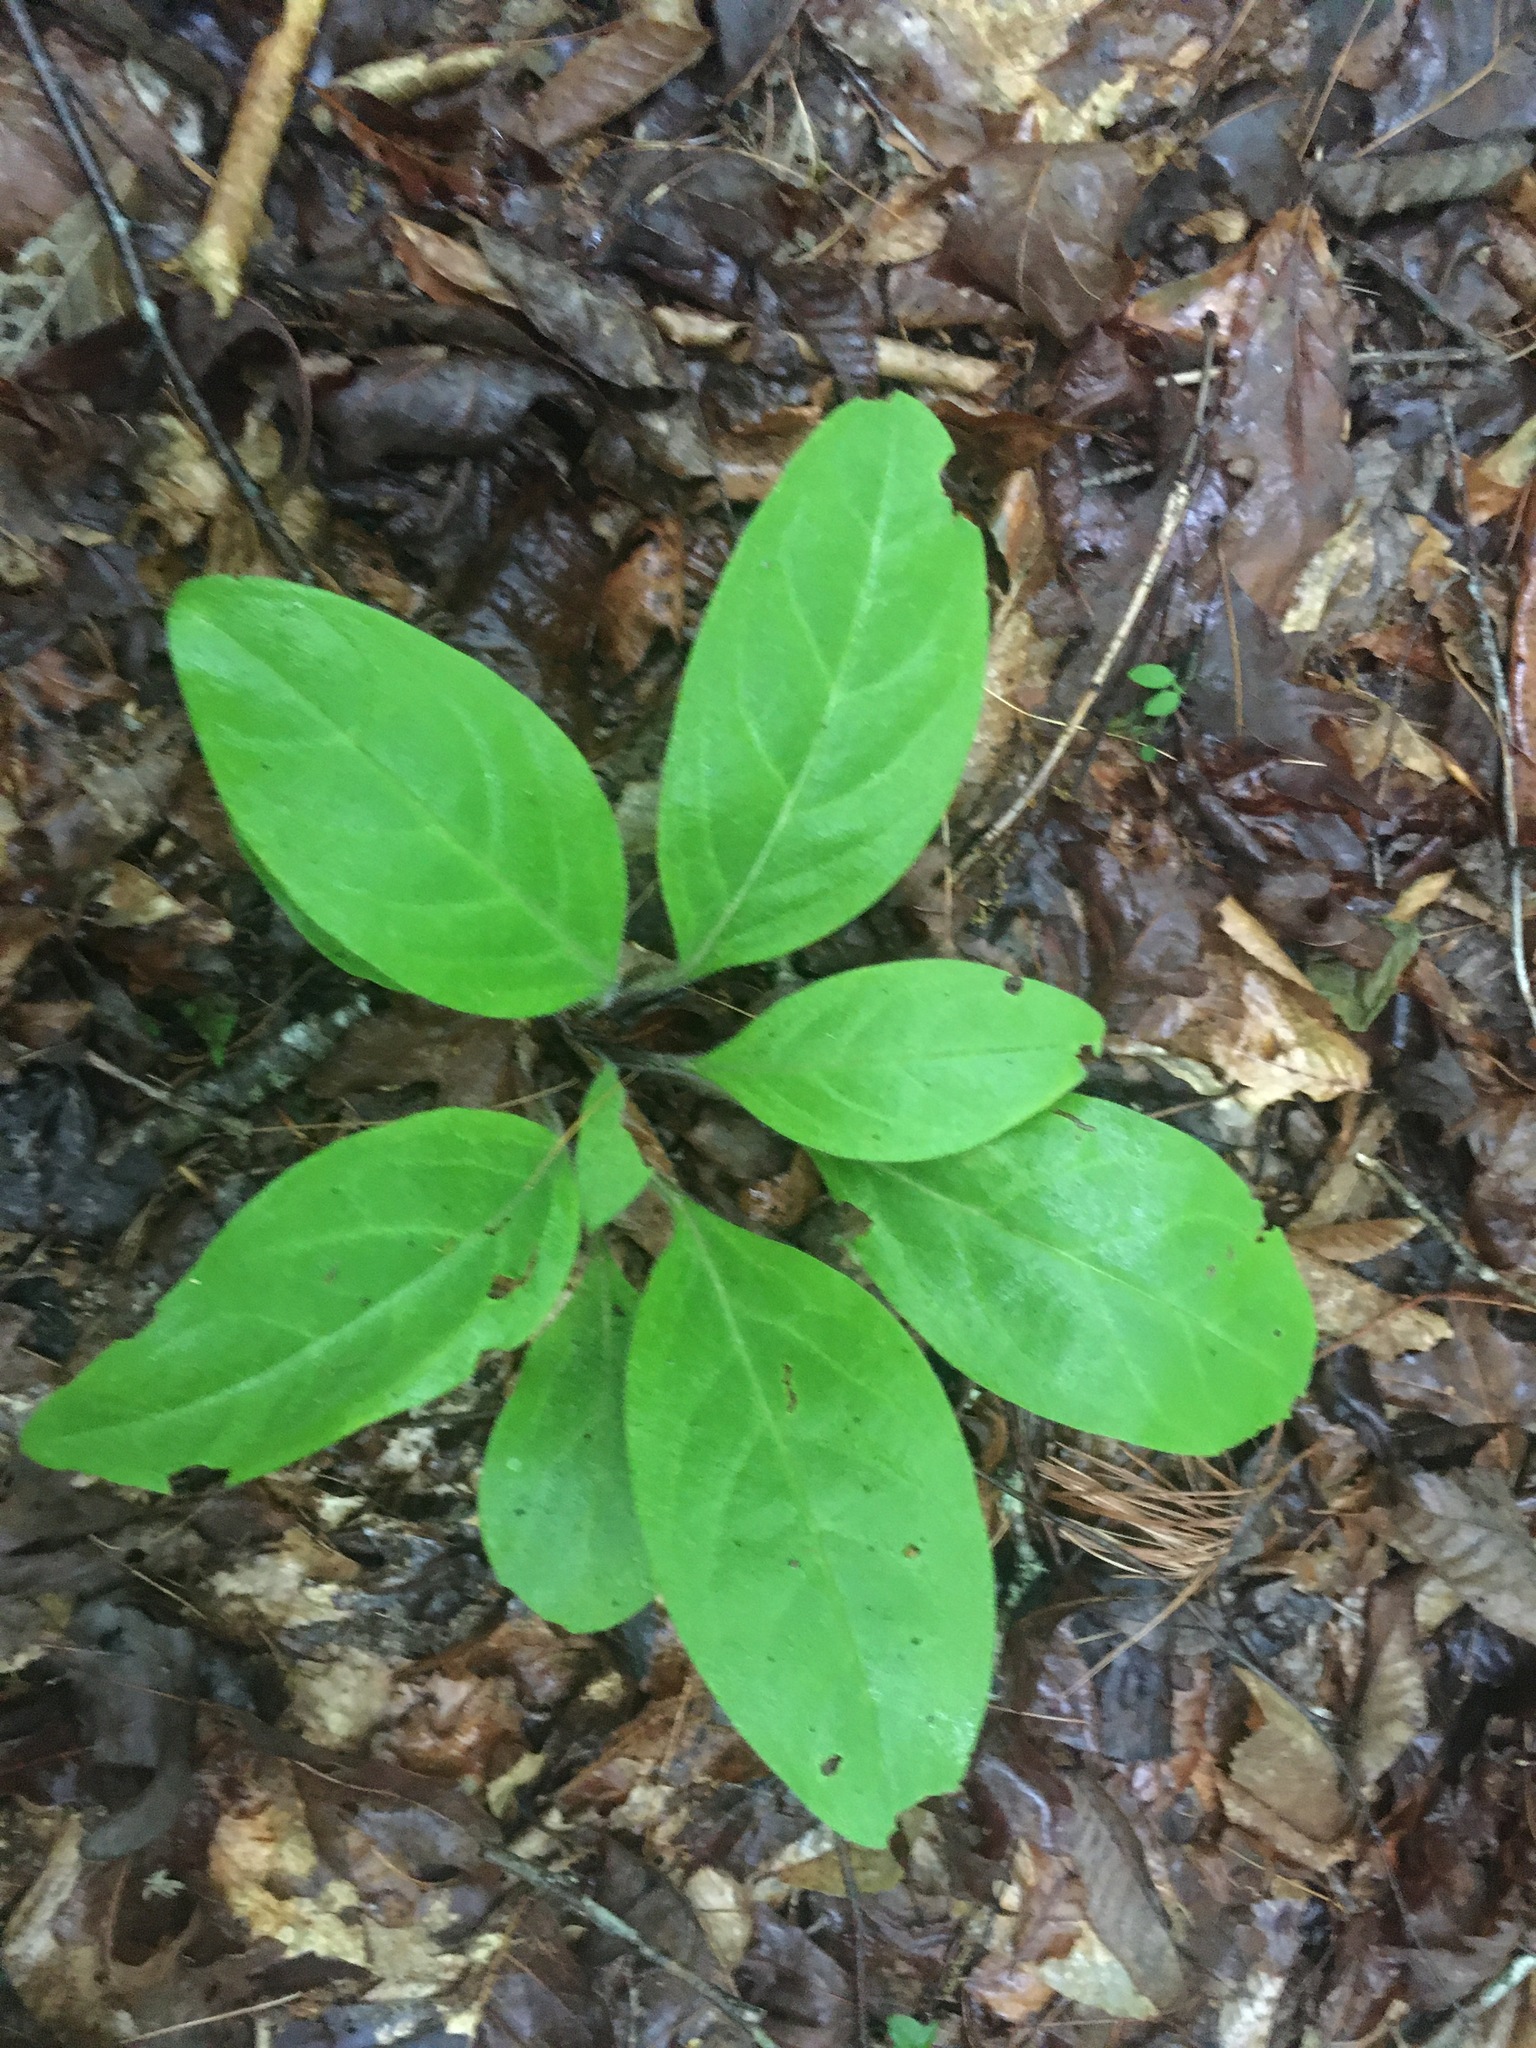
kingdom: Plantae
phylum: Tracheophyta
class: Magnoliopsida
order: Boraginales
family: Boraginaceae
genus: Andersonglossum
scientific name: Andersonglossum virginianum
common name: Wild comfrey
